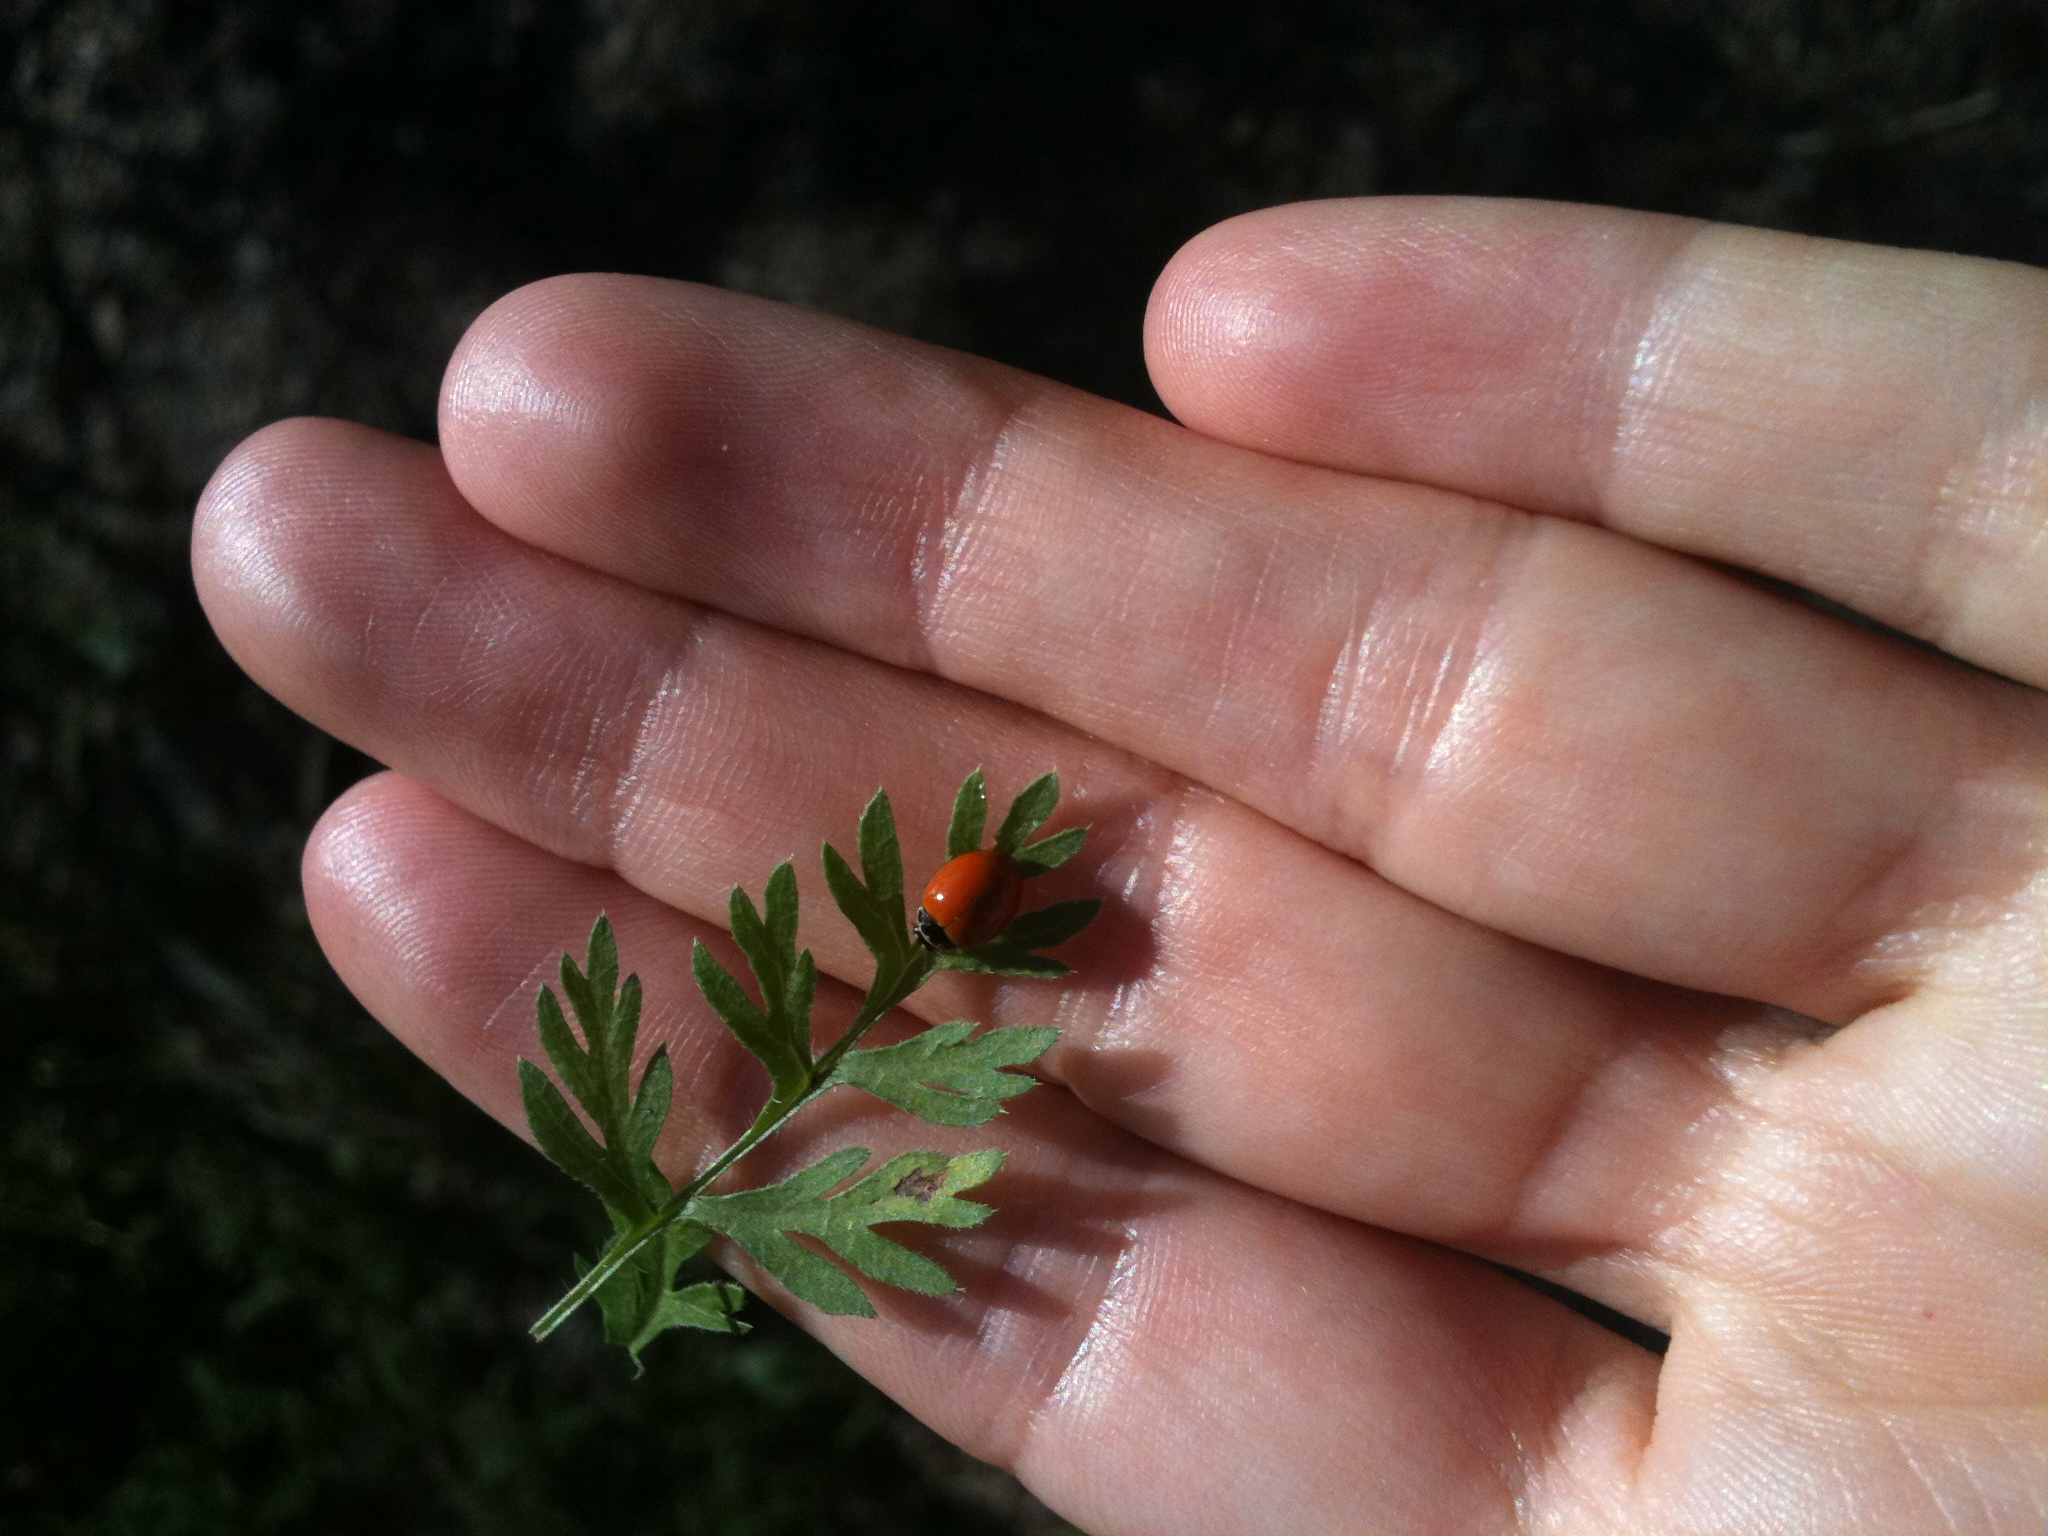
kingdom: Animalia
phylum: Arthropoda
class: Insecta
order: Coleoptera
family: Coccinellidae
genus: Cycloneda
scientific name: Cycloneda munda
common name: Polished lady beetle
